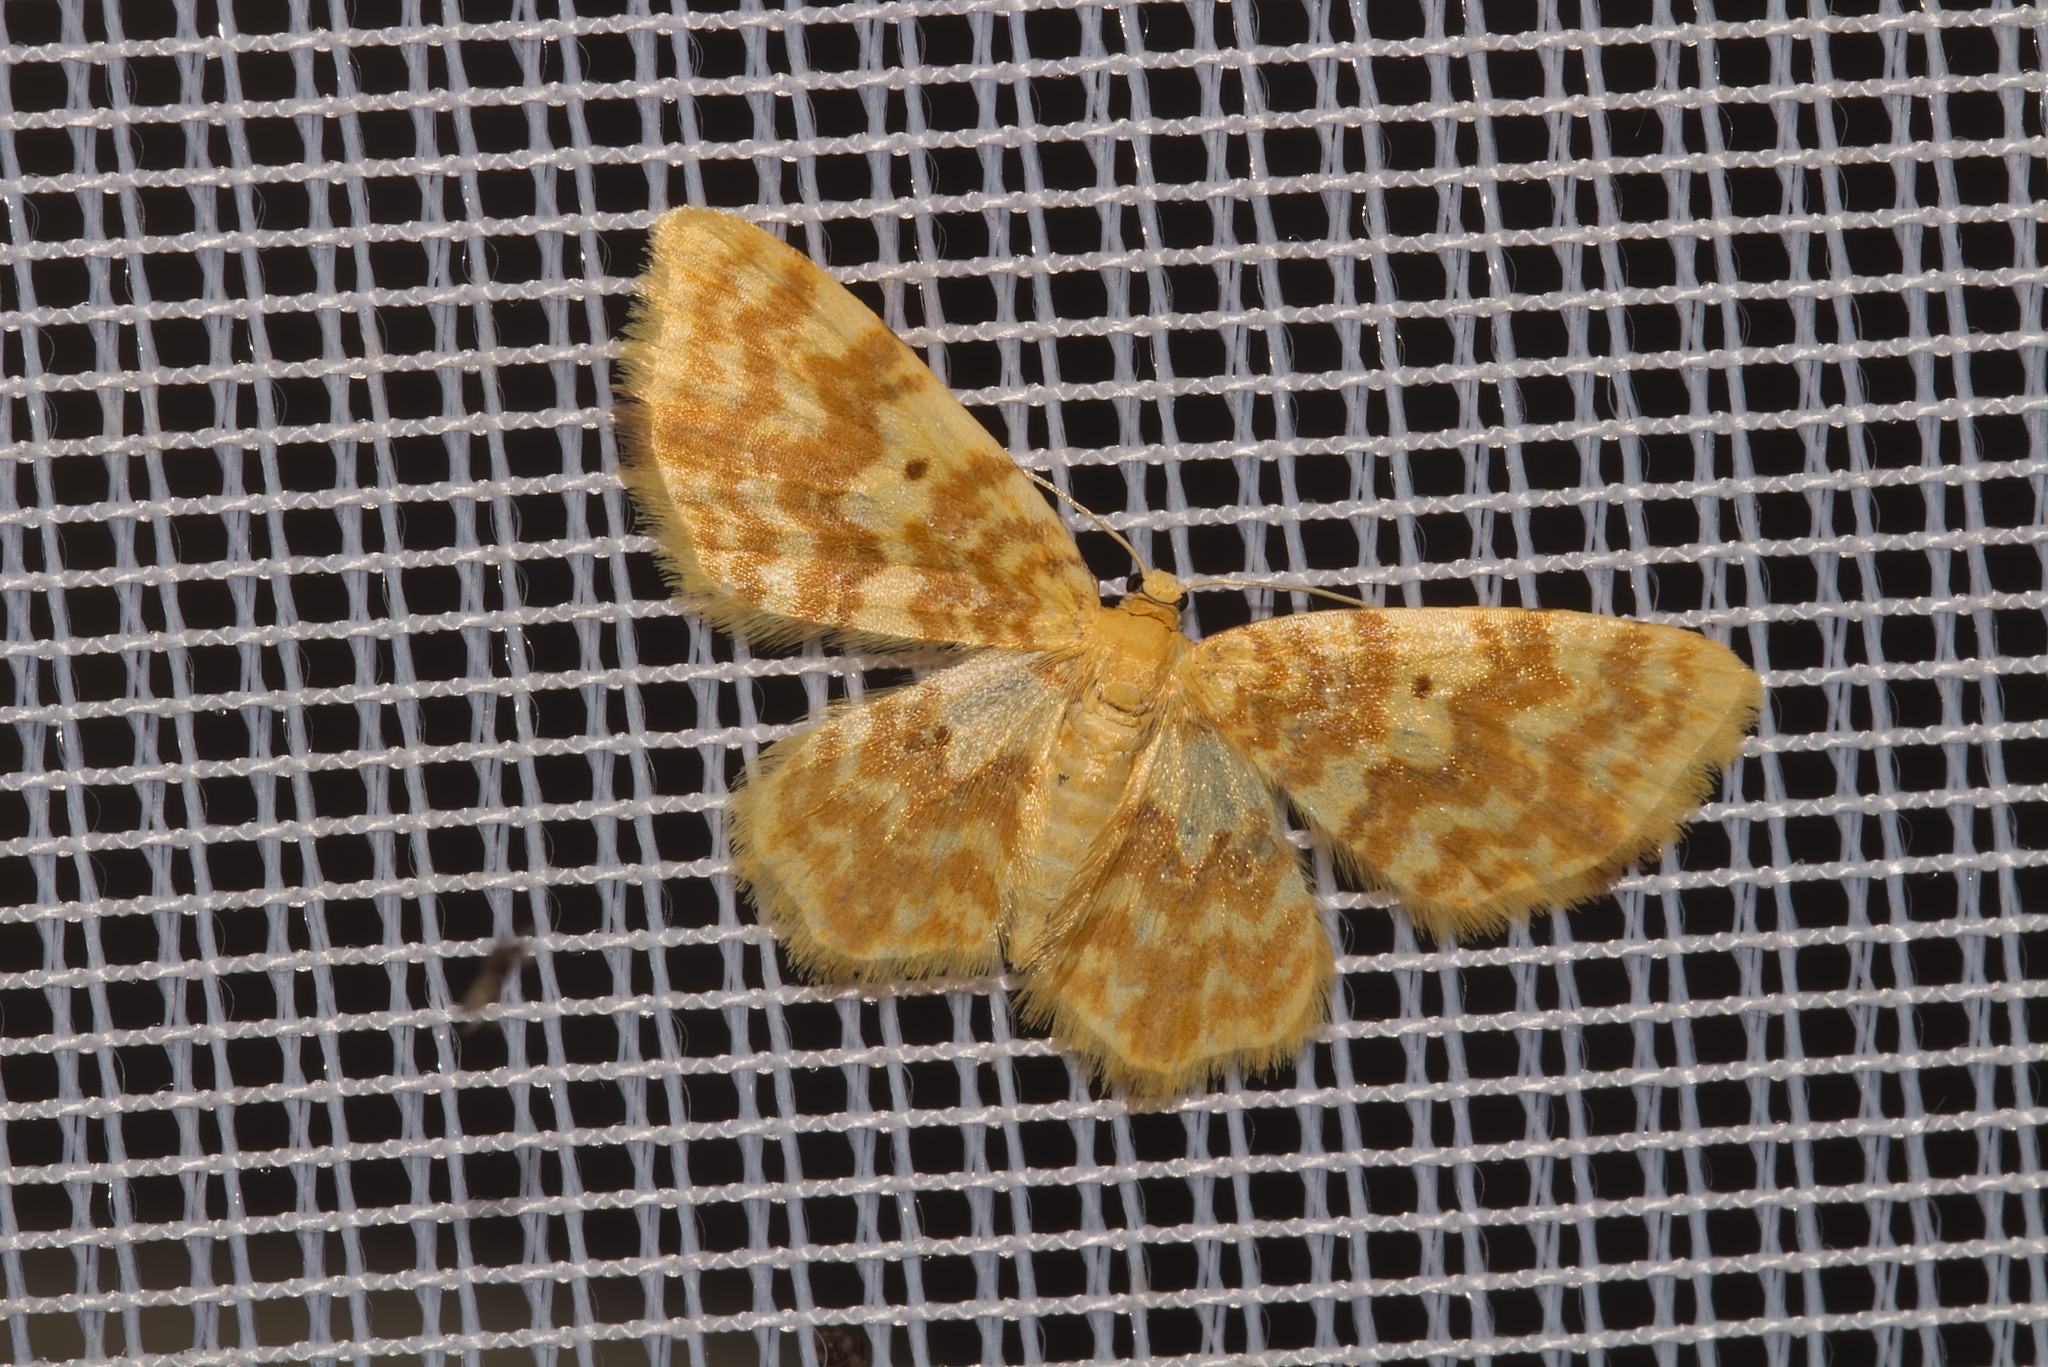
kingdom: Animalia
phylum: Arthropoda
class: Insecta
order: Lepidoptera
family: Geometridae
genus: Hydrelia
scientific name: Hydrelia flammeolaria
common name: Small yellow wave
